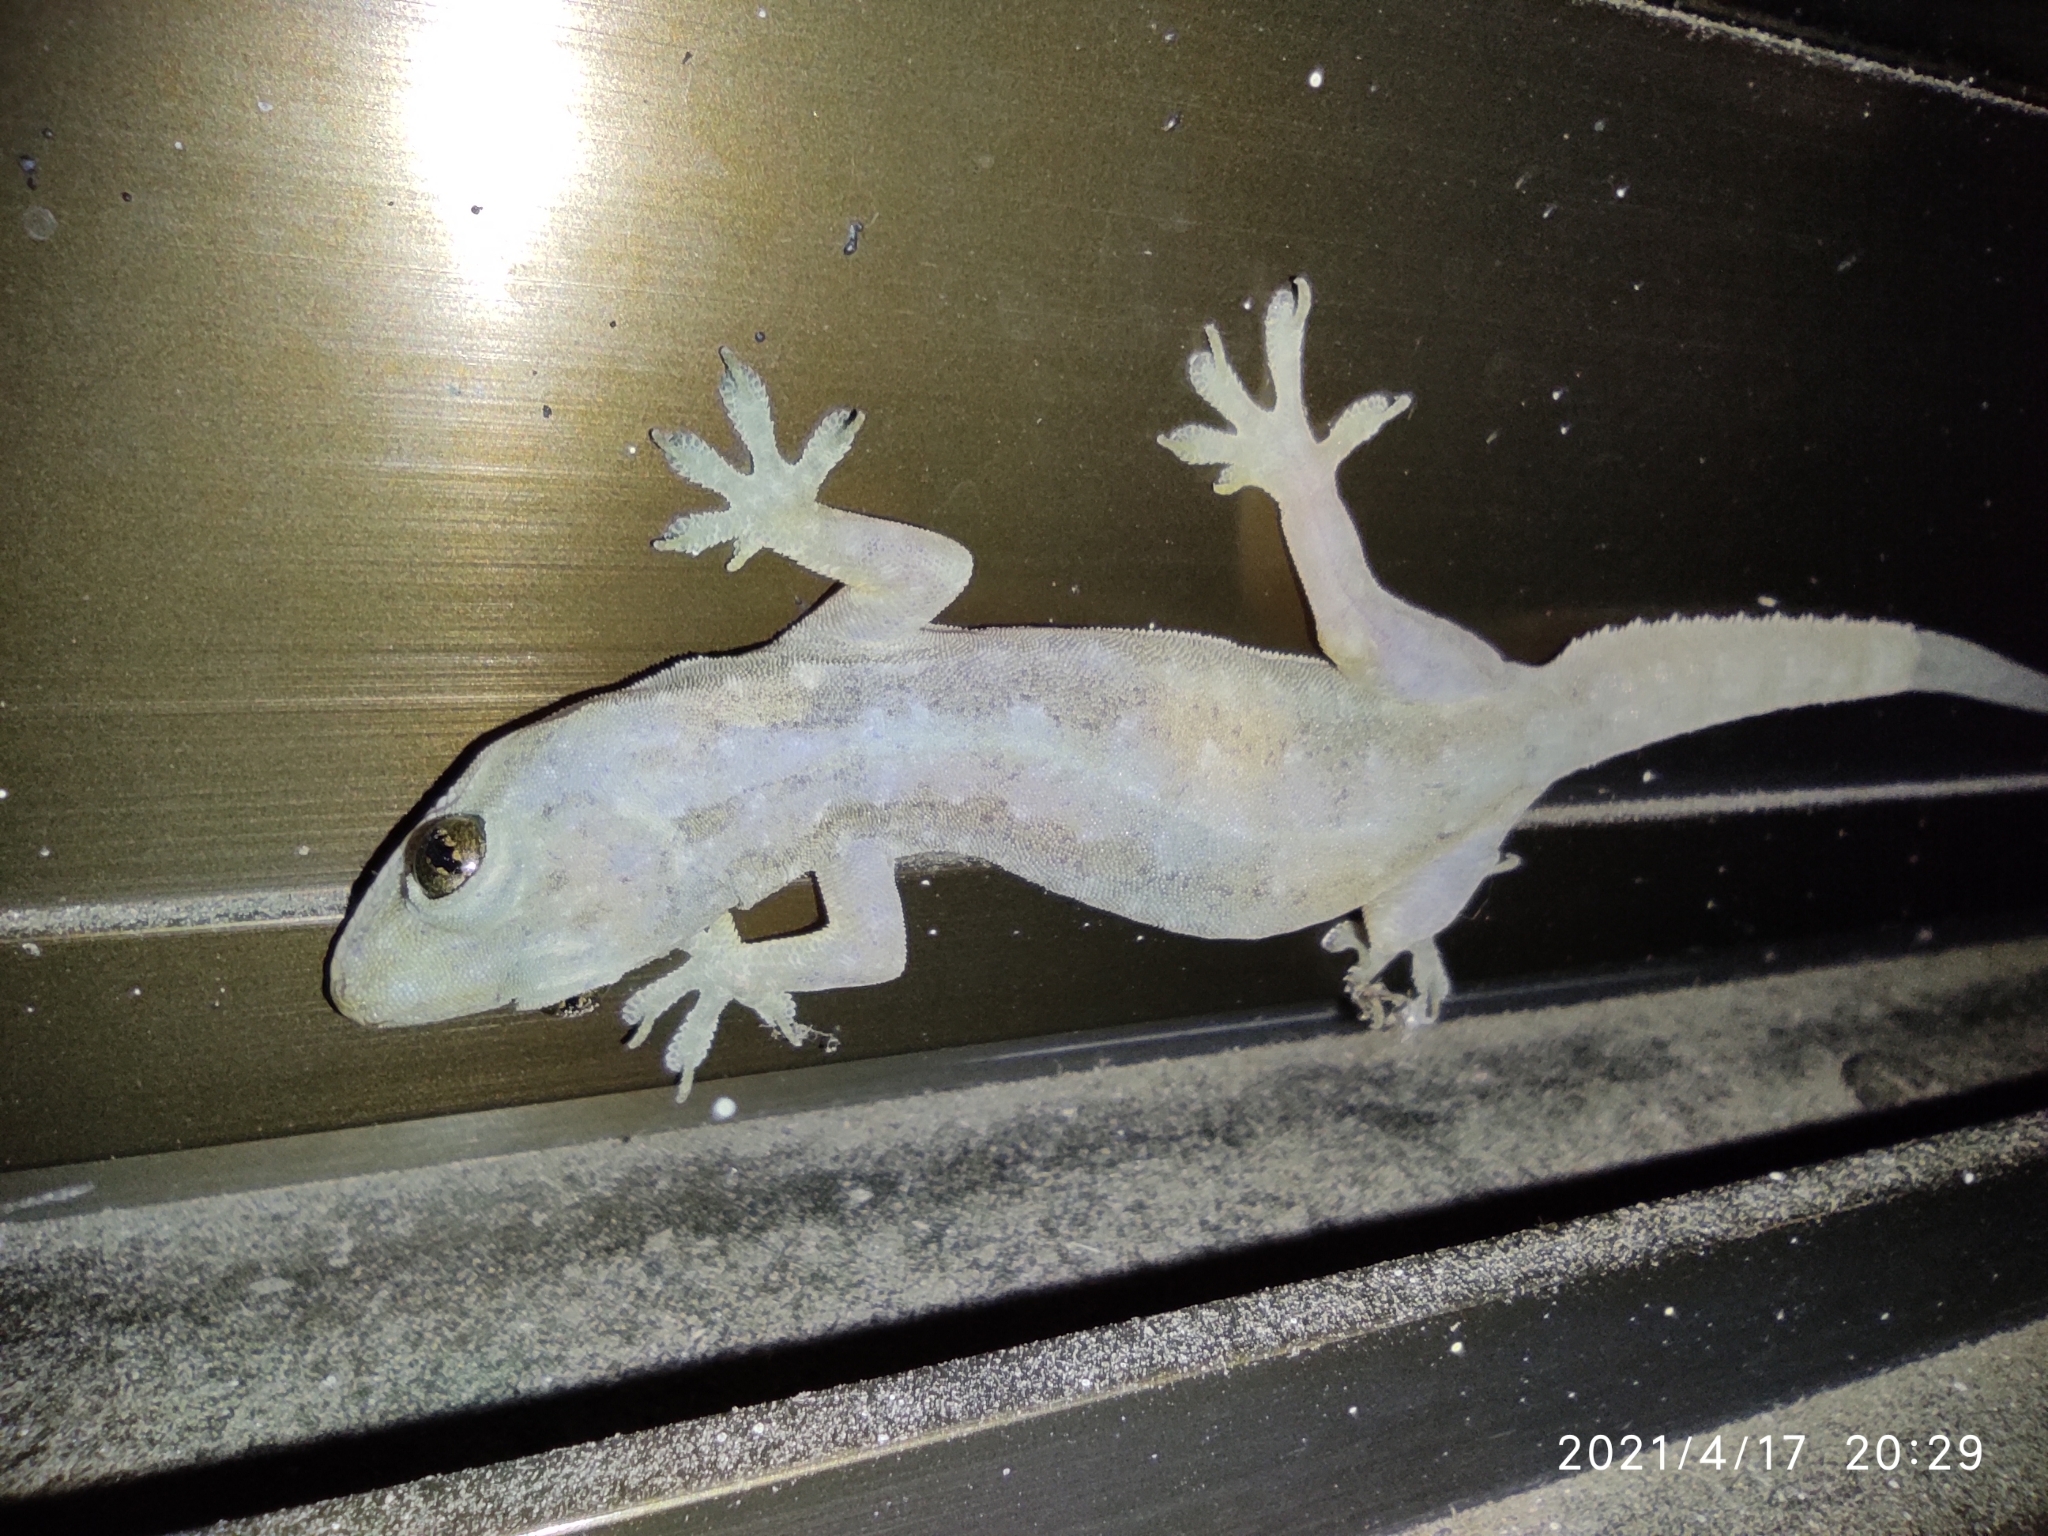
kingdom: Animalia
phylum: Chordata
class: Squamata
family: Gekkonidae
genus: Hemidactylus
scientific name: Hemidactylus frenatus
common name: Common house gecko
